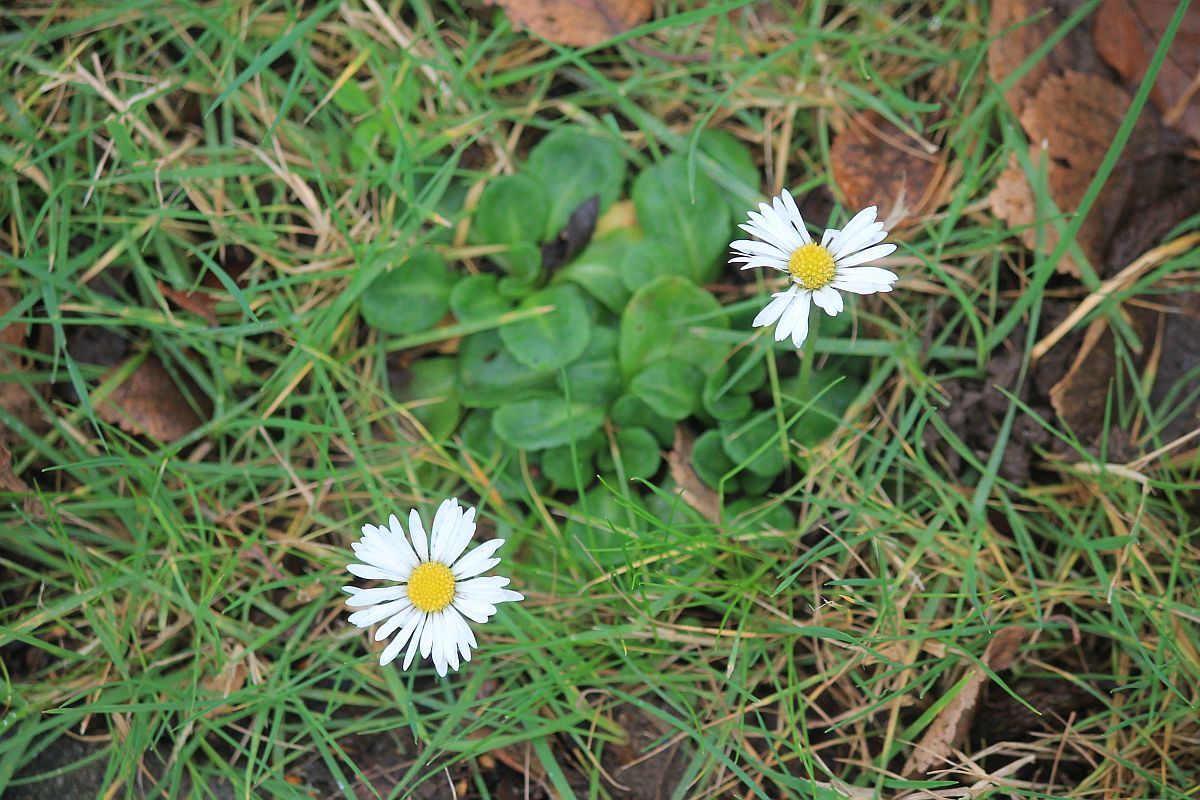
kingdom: Plantae
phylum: Tracheophyta
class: Magnoliopsida
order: Asterales
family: Asteraceae
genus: Bellis
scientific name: Bellis perennis
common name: Lawndaisy
